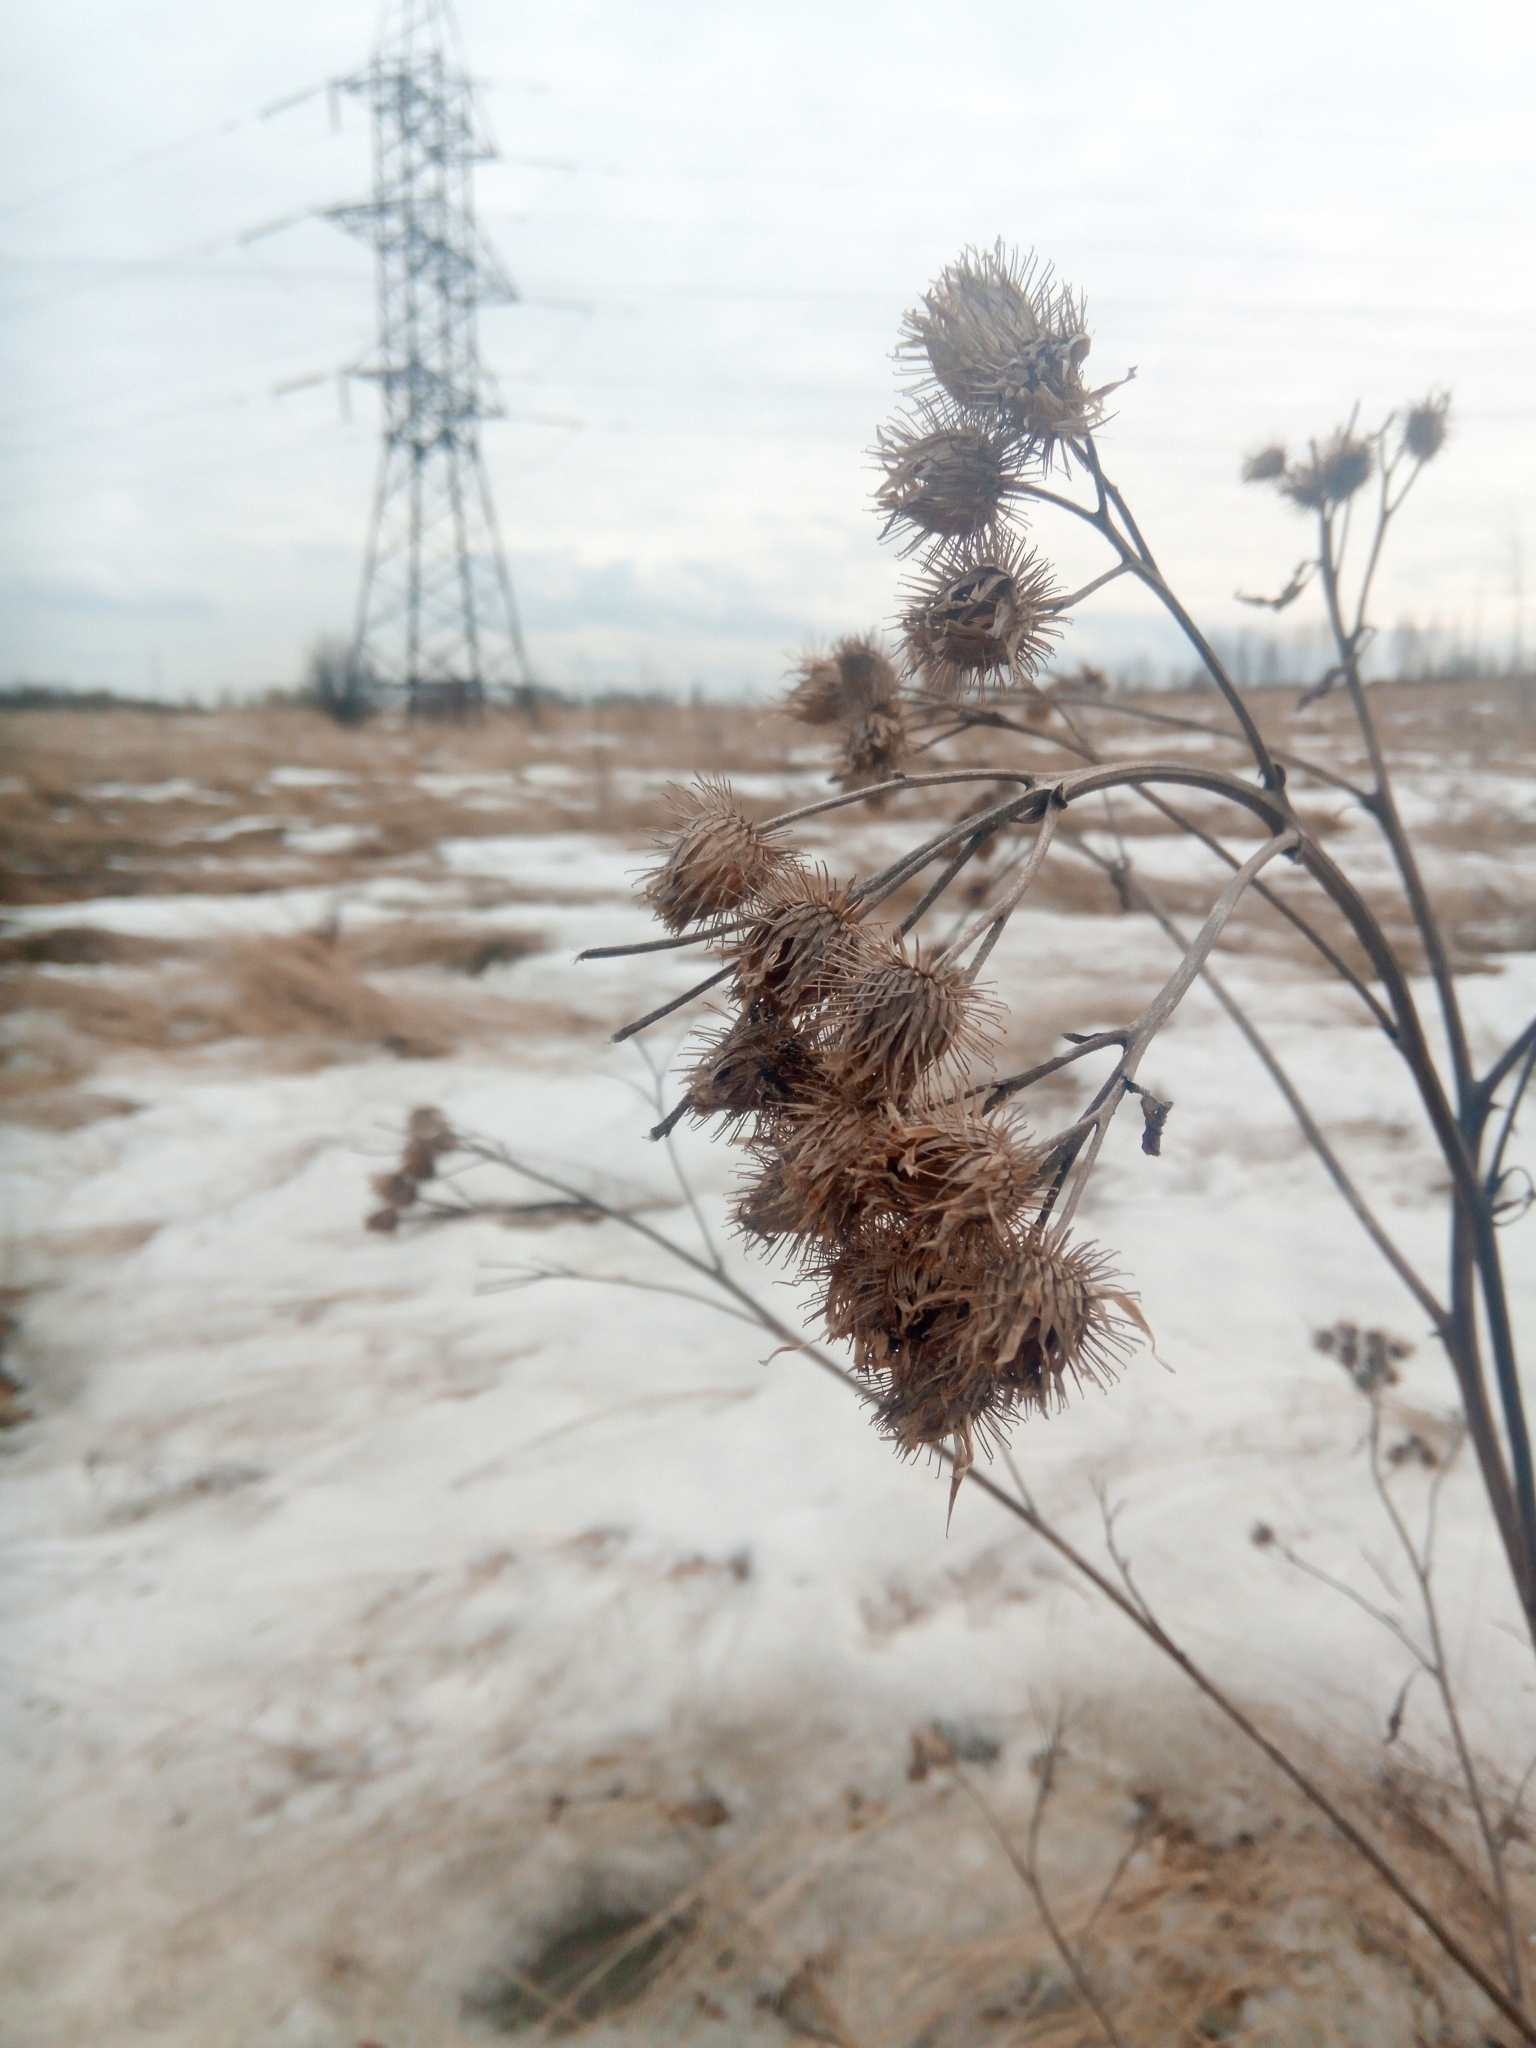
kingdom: Plantae
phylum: Tracheophyta
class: Magnoliopsida
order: Asterales
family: Asteraceae
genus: Arctium
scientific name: Arctium tomentosum
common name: Woolly burdock
